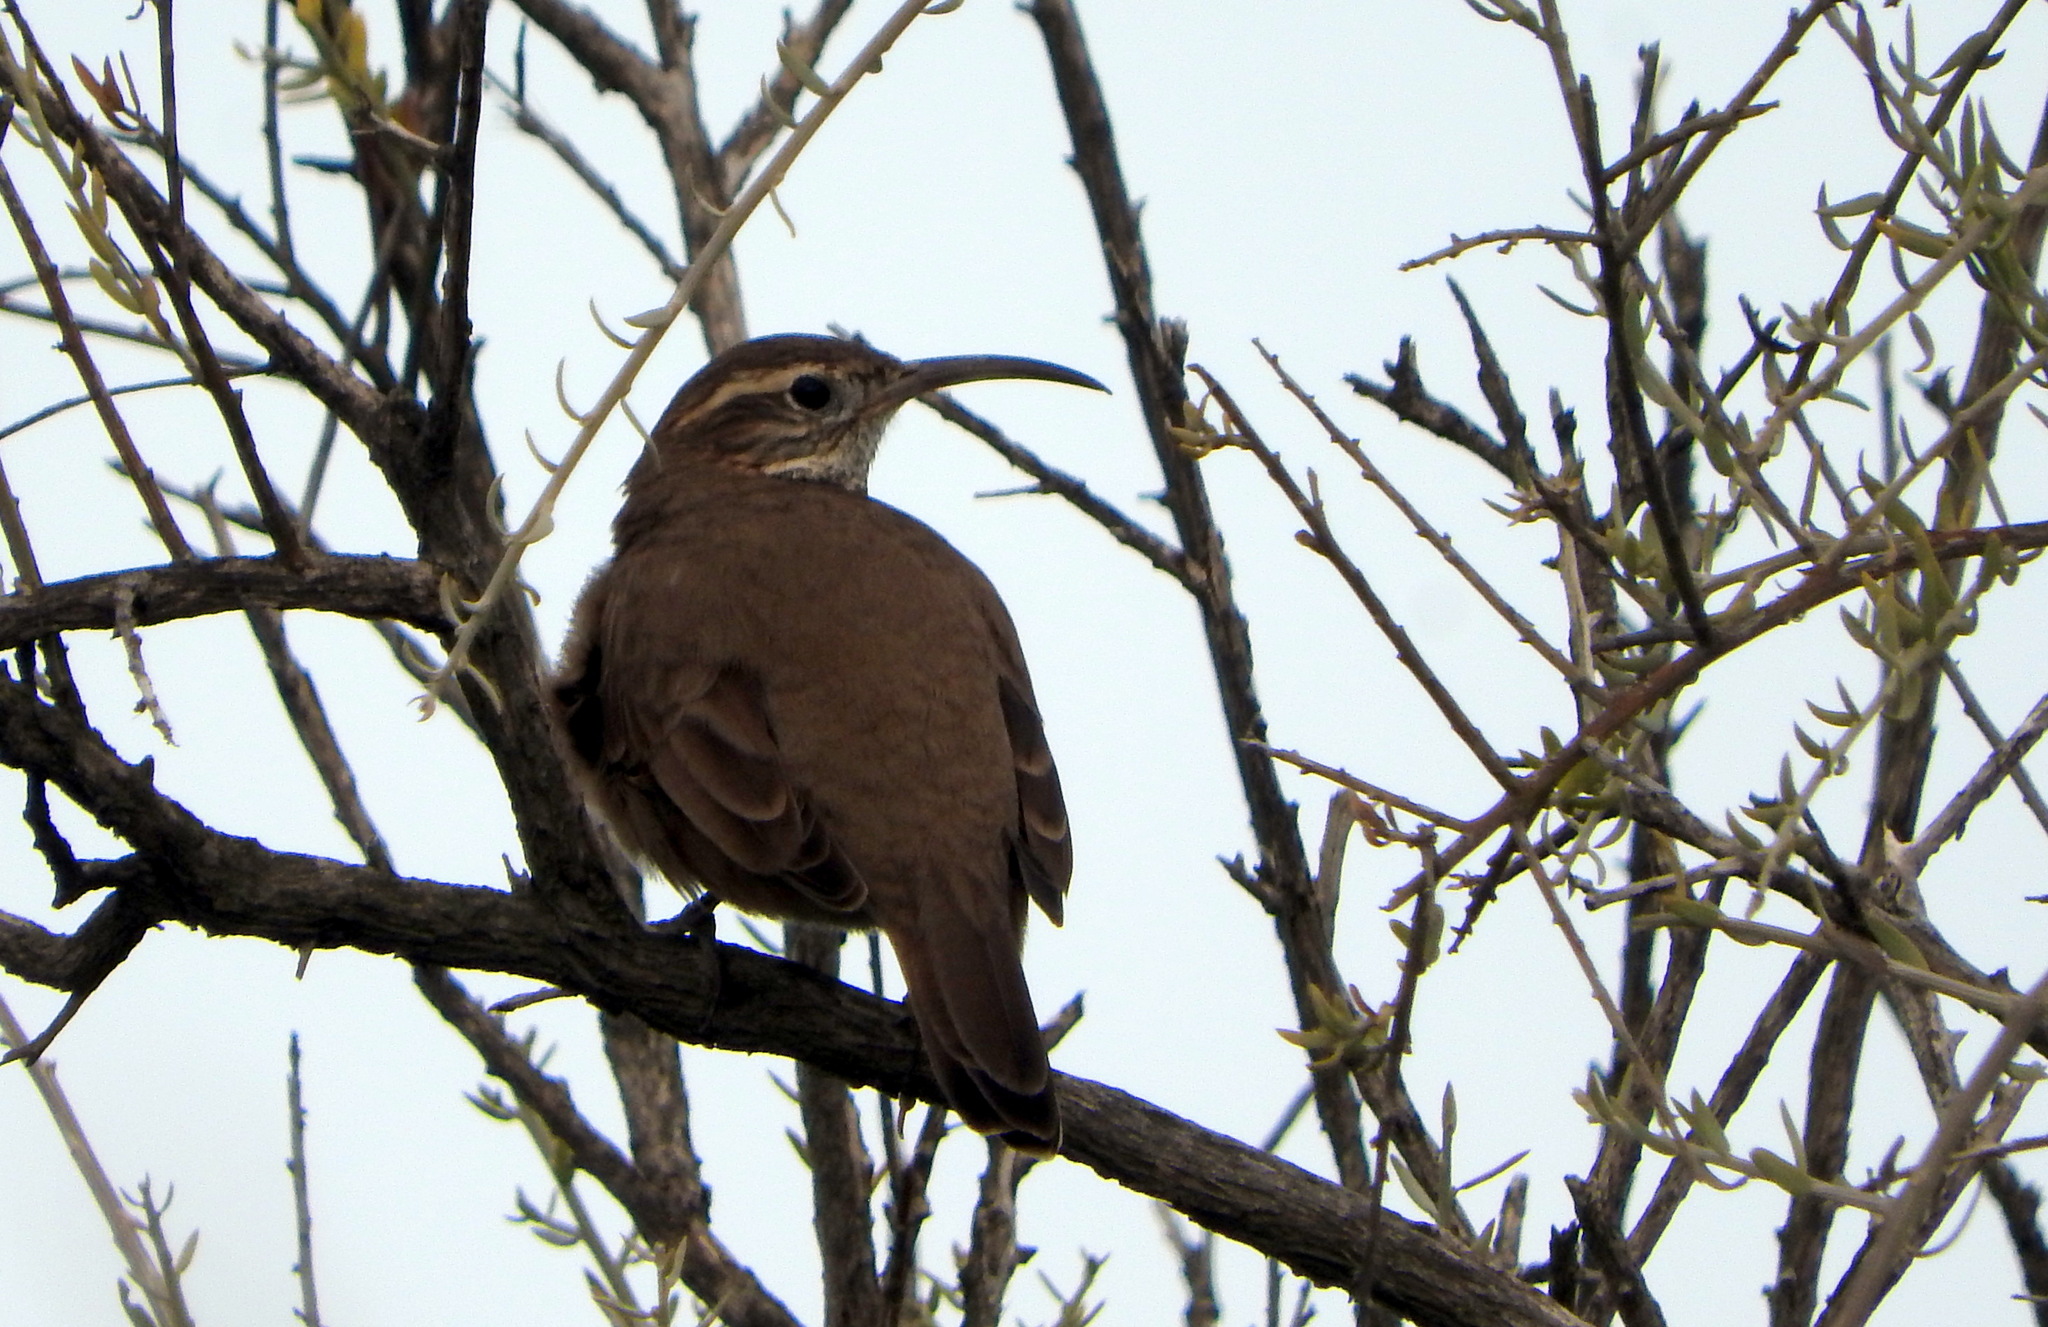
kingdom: Animalia
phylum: Chordata
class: Aves
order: Passeriformes
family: Furnariidae
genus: Upucerthia
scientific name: Upucerthia dumetaria
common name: Scale-throated earthcreeper
